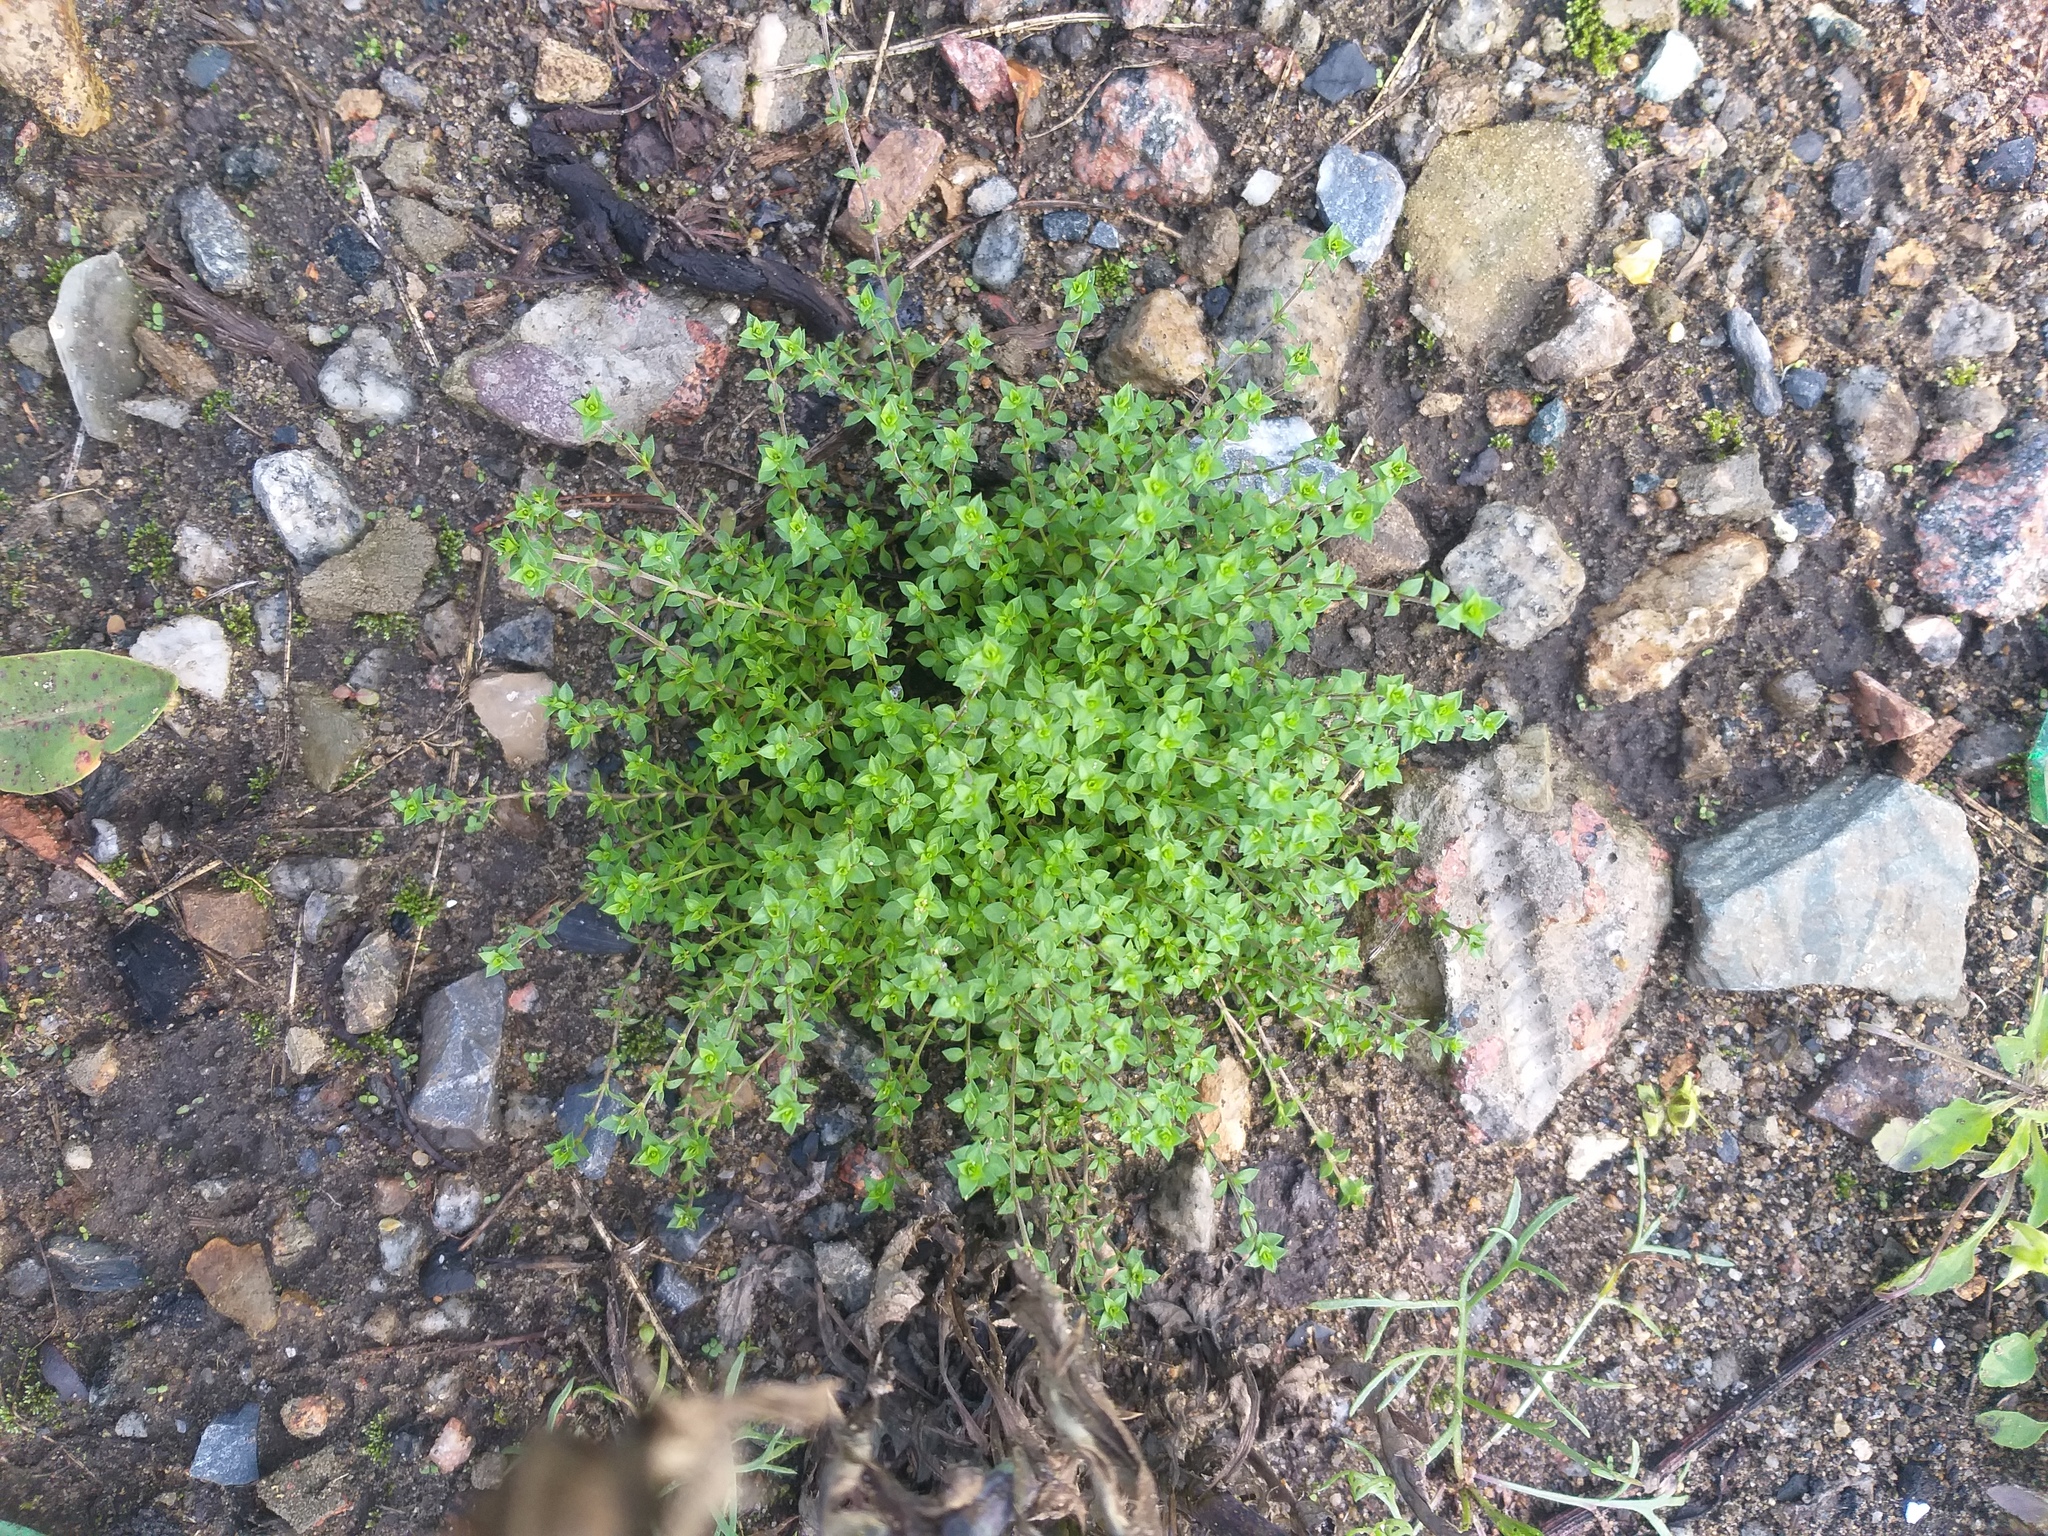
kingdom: Plantae
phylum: Tracheophyta
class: Magnoliopsida
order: Caryophyllales
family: Caryophyllaceae
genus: Arenaria
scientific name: Arenaria serpyllifolia
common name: Thyme-leaved sandwort
